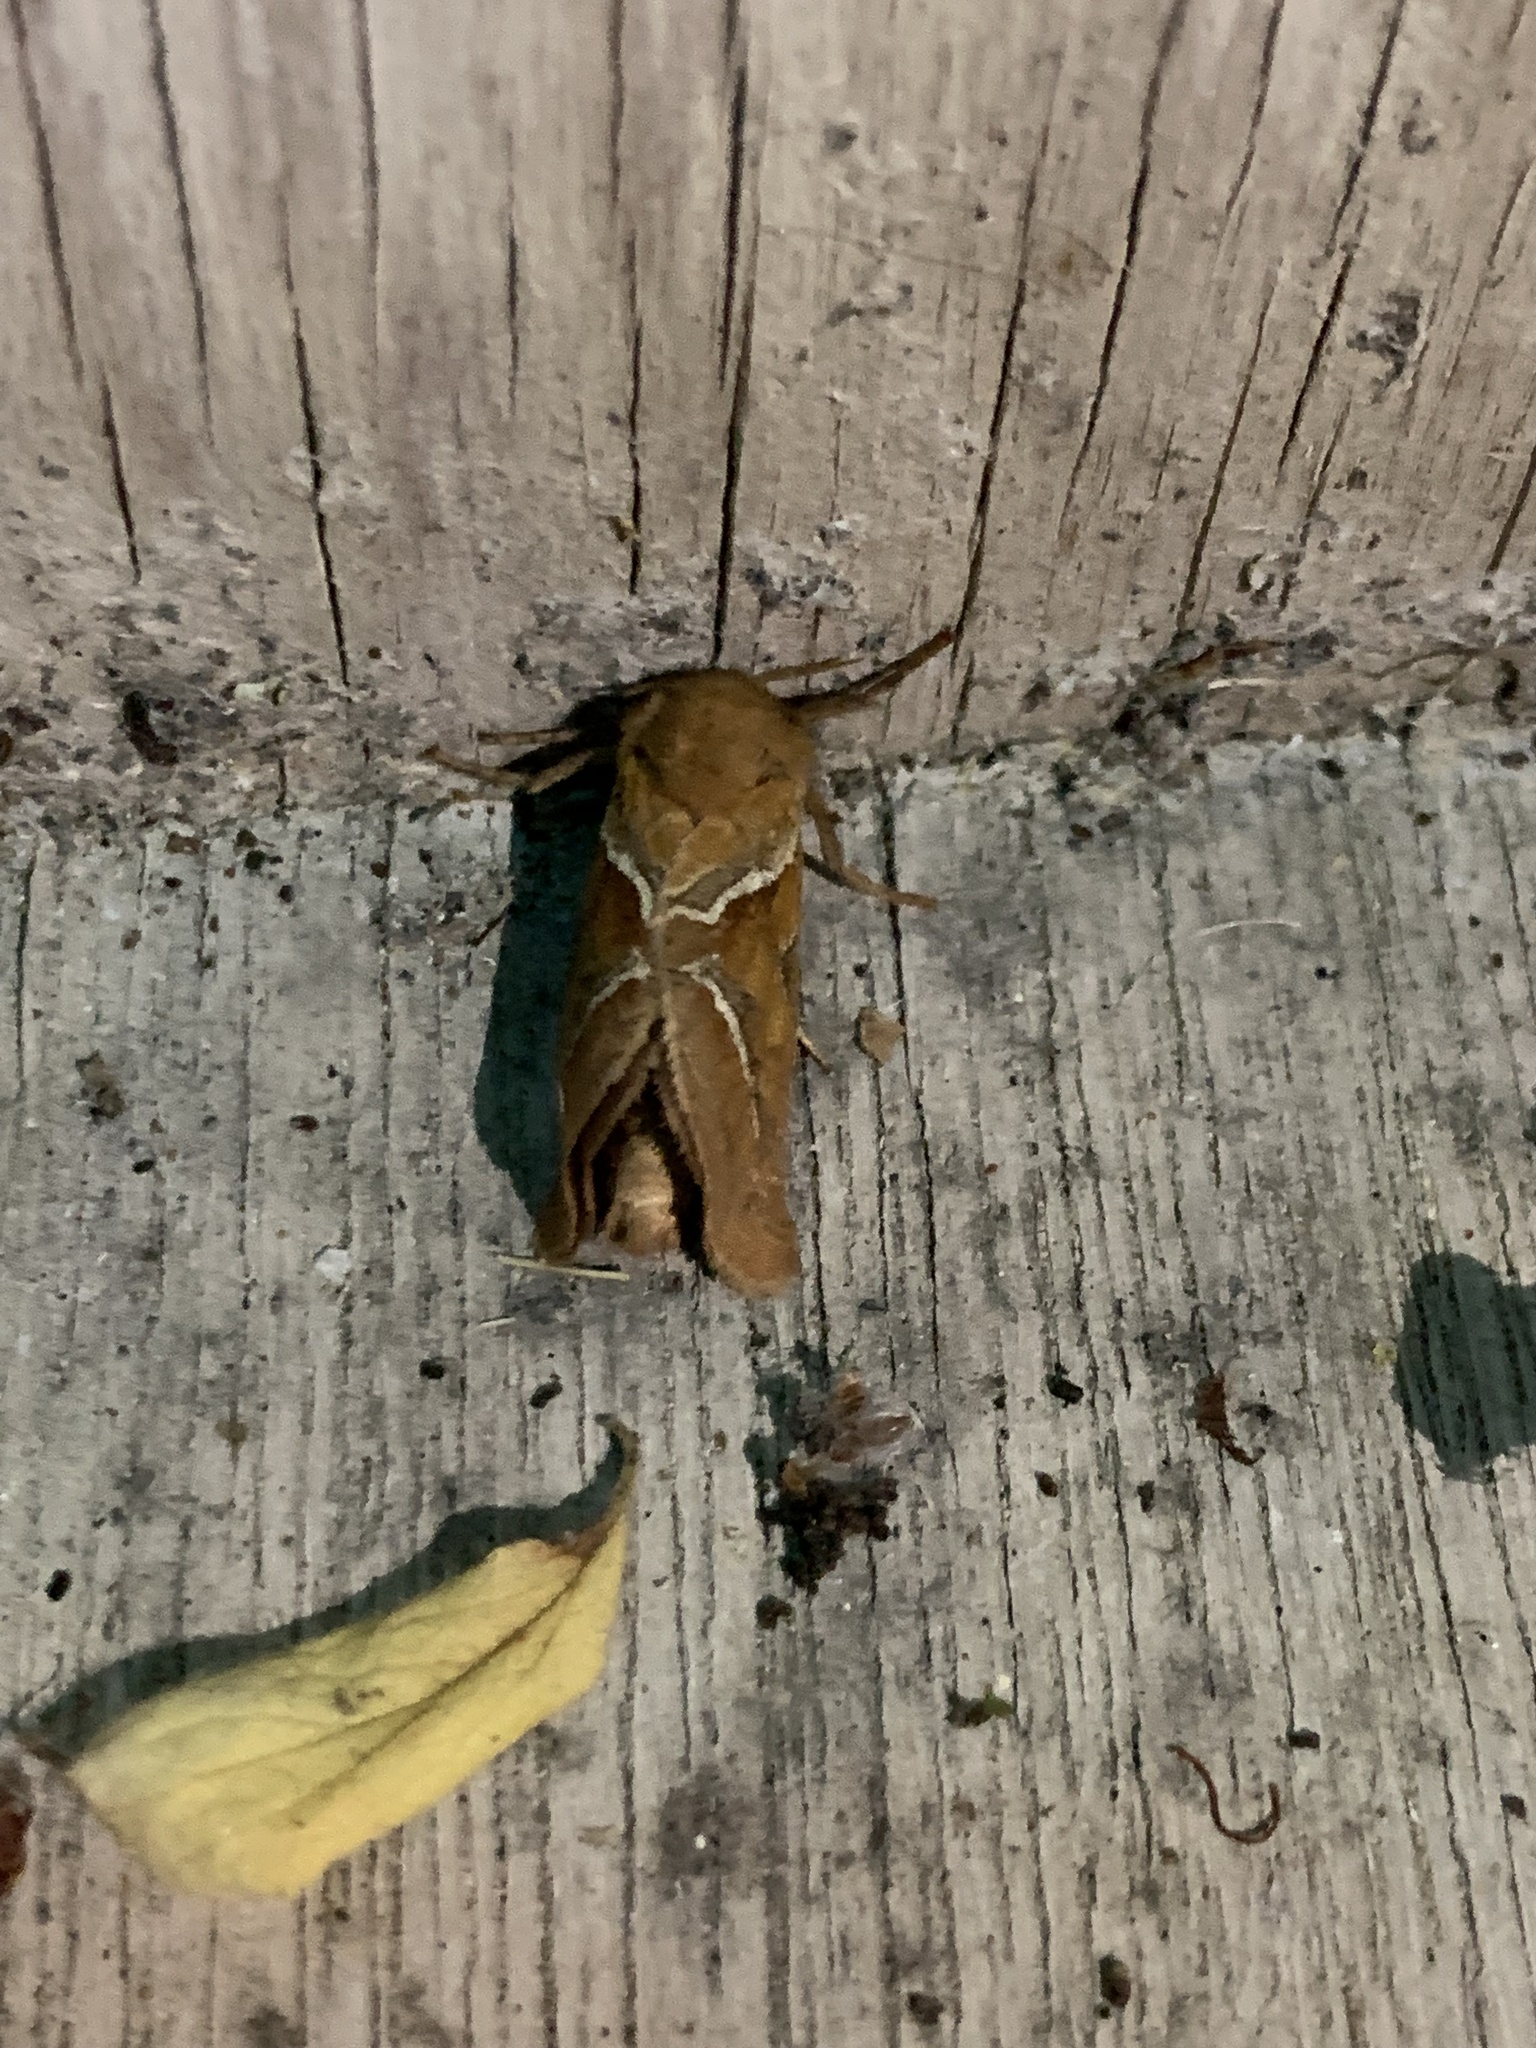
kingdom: Animalia
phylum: Arthropoda
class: Insecta
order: Lepidoptera
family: Hepialidae
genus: Triodia
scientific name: Triodia sylvina
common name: Orange swift
